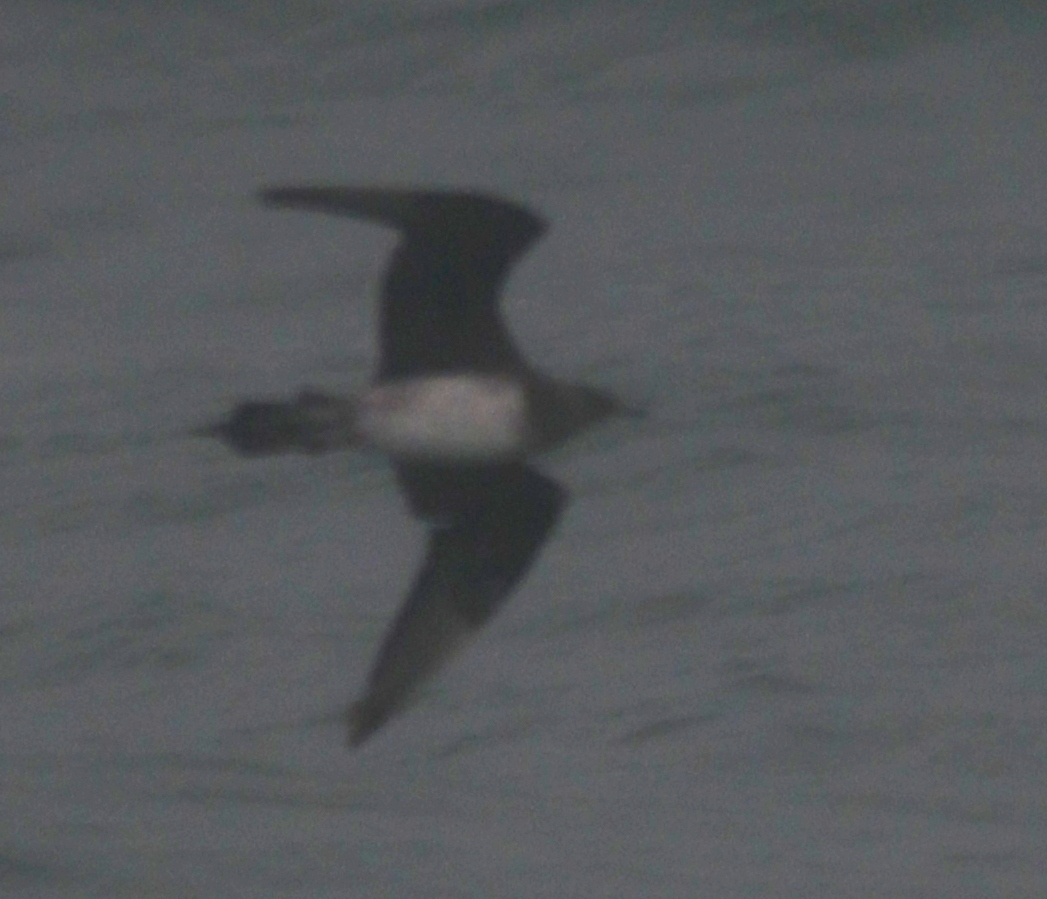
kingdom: Animalia
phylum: Chordata
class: Aves
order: Charadriiformes
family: Stercorariidae
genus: Stercorarius
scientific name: Stercorarius parasiticus
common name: Parasitic jaeger
